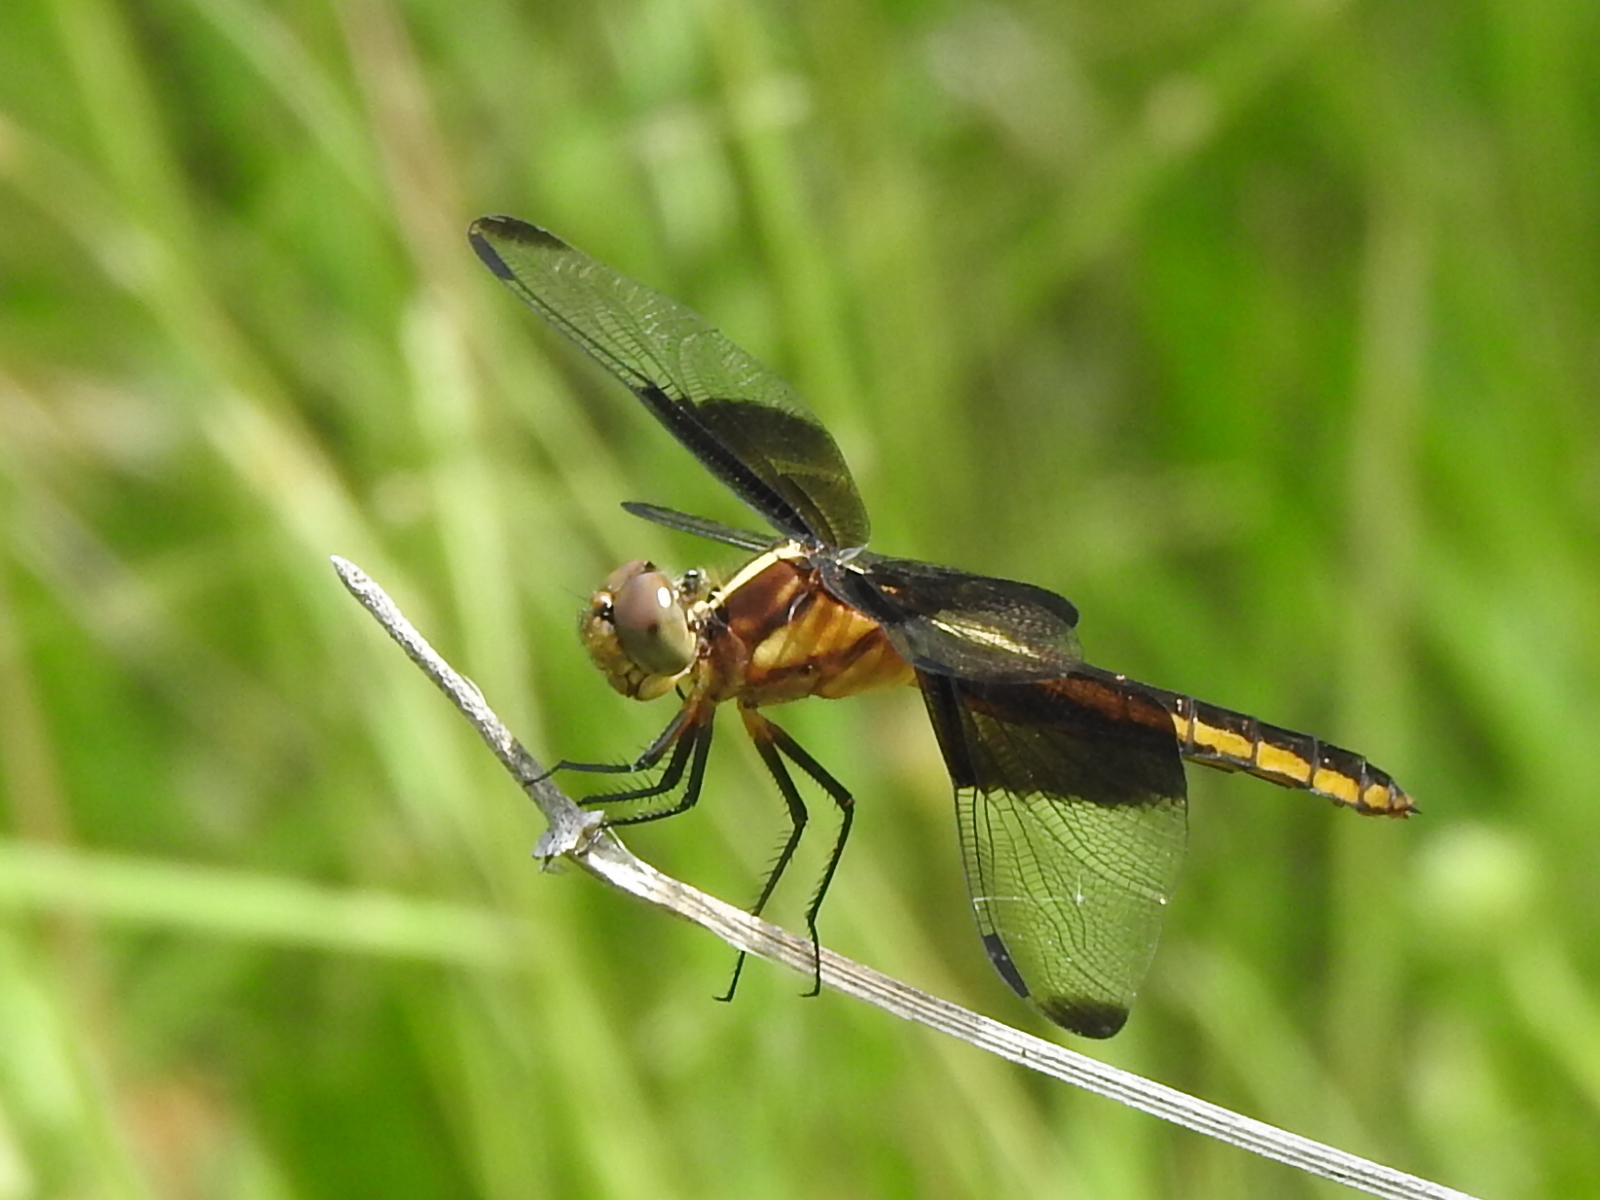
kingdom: Animalia
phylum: Arthropoda
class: Insecta
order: Odonata
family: Libellulidae
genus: Libellula
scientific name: Libellula luctuosa
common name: Widow skimmer
